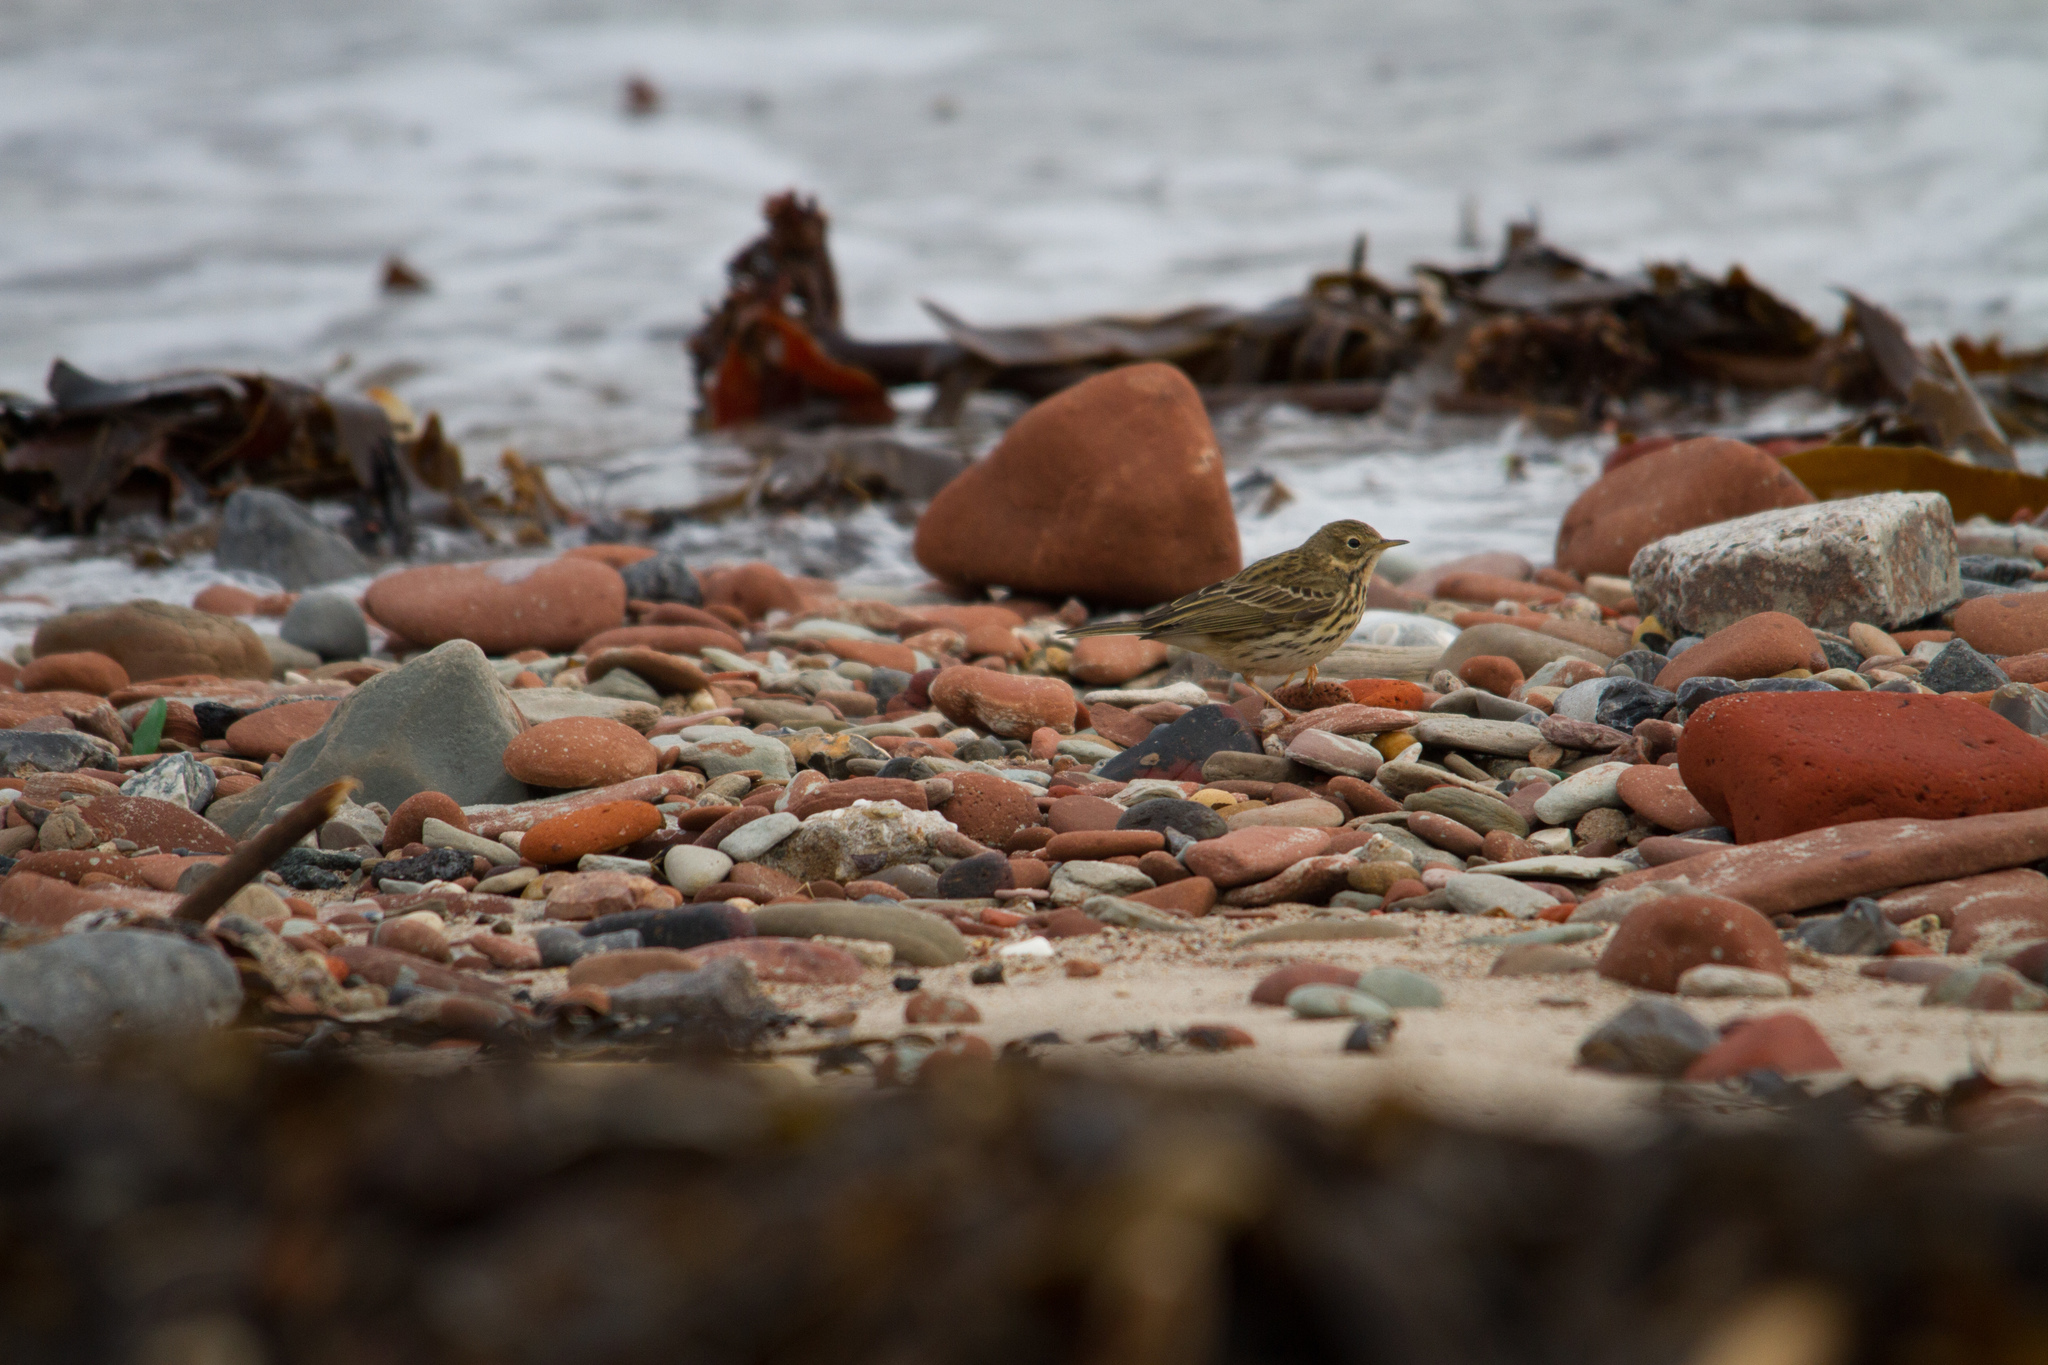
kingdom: Animalia
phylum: Chordata
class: Aves
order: Passeriformes
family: Motacillidae
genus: Anthus
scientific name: Anthus pratensis
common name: Meadow pipit
